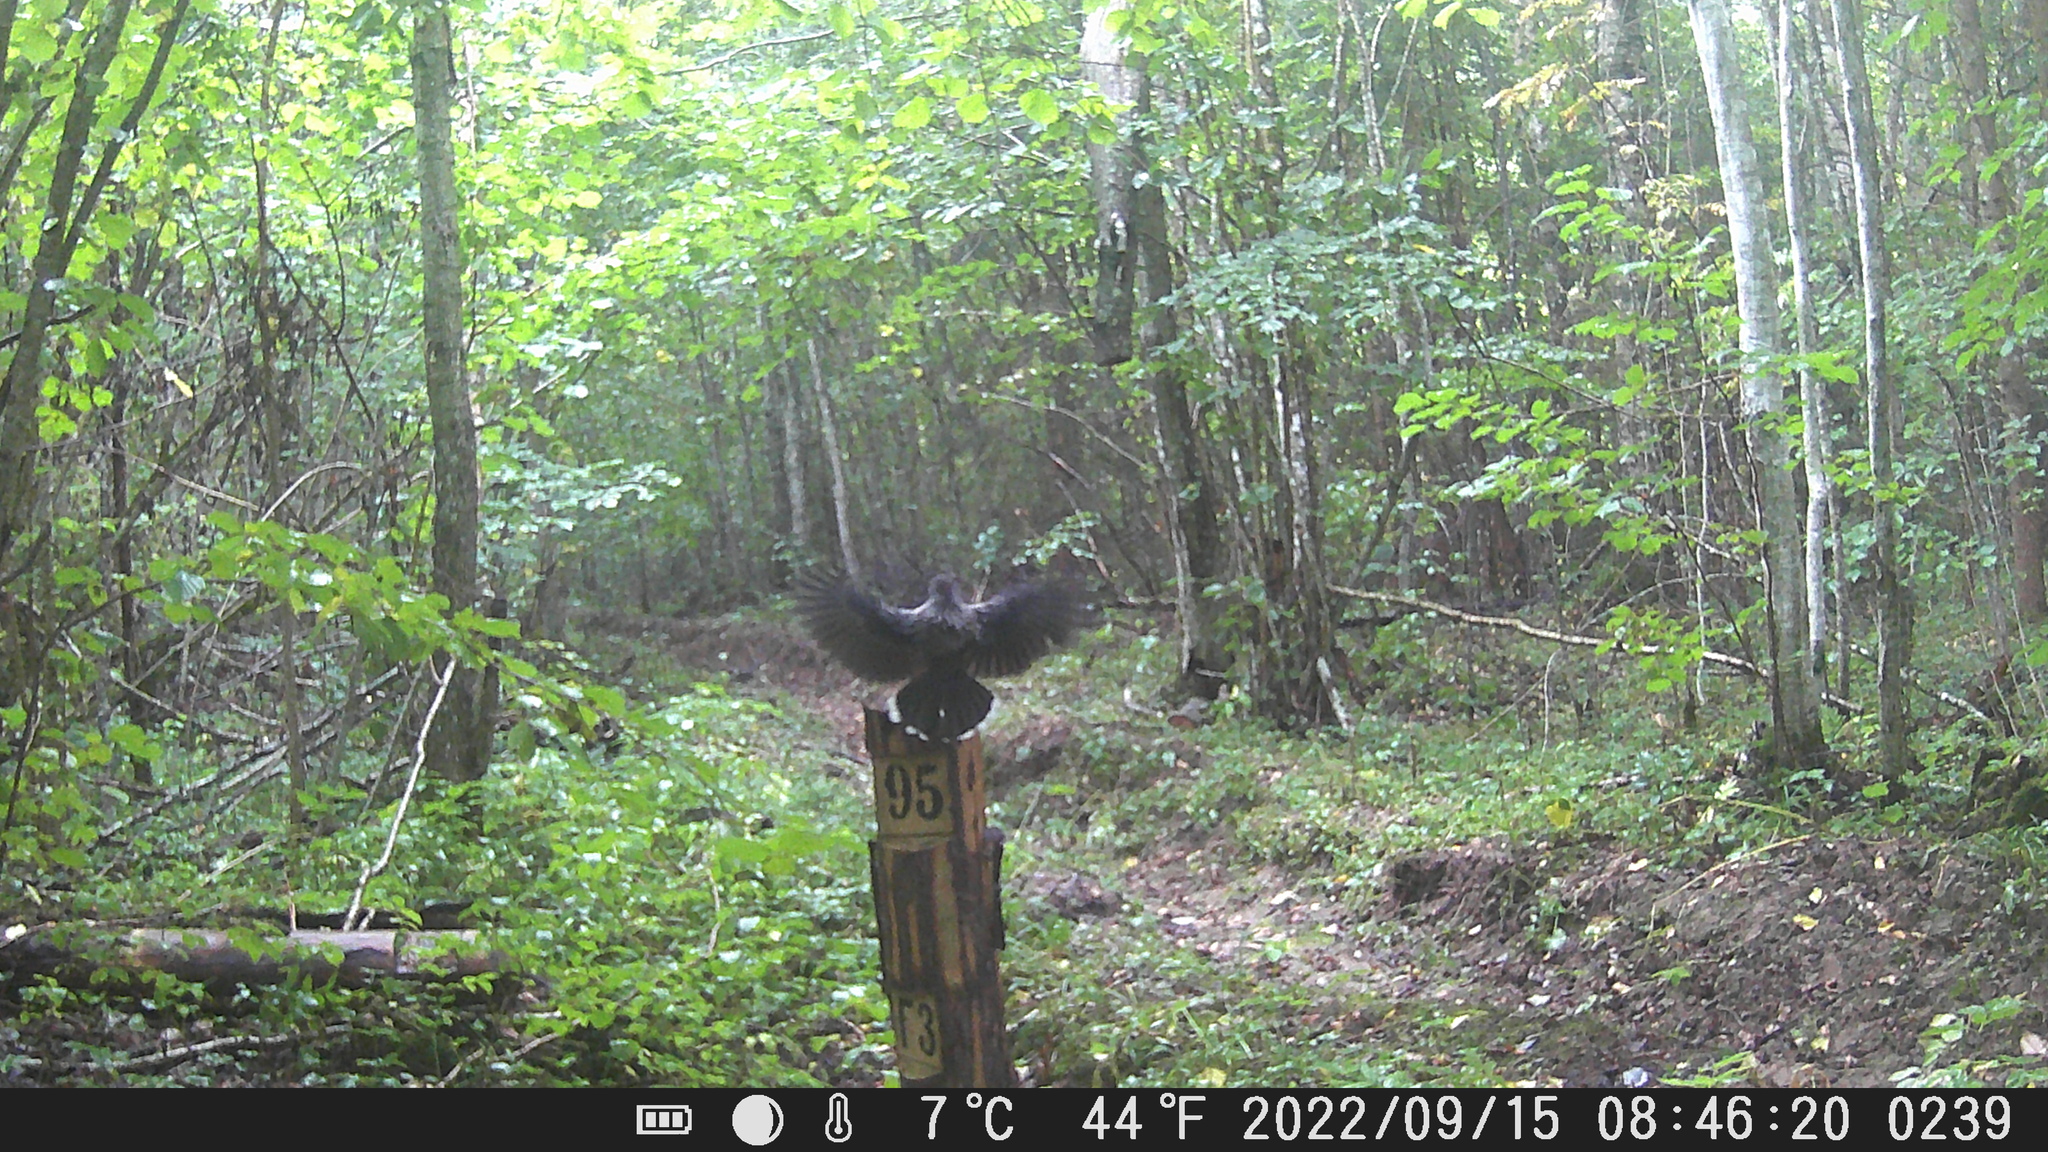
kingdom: Animalia
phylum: Chordata
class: Aves
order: Passeriformes
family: Corvidae
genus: Nucifraga
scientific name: Nucifraga caryocatactes
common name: Spotted nutcracker
